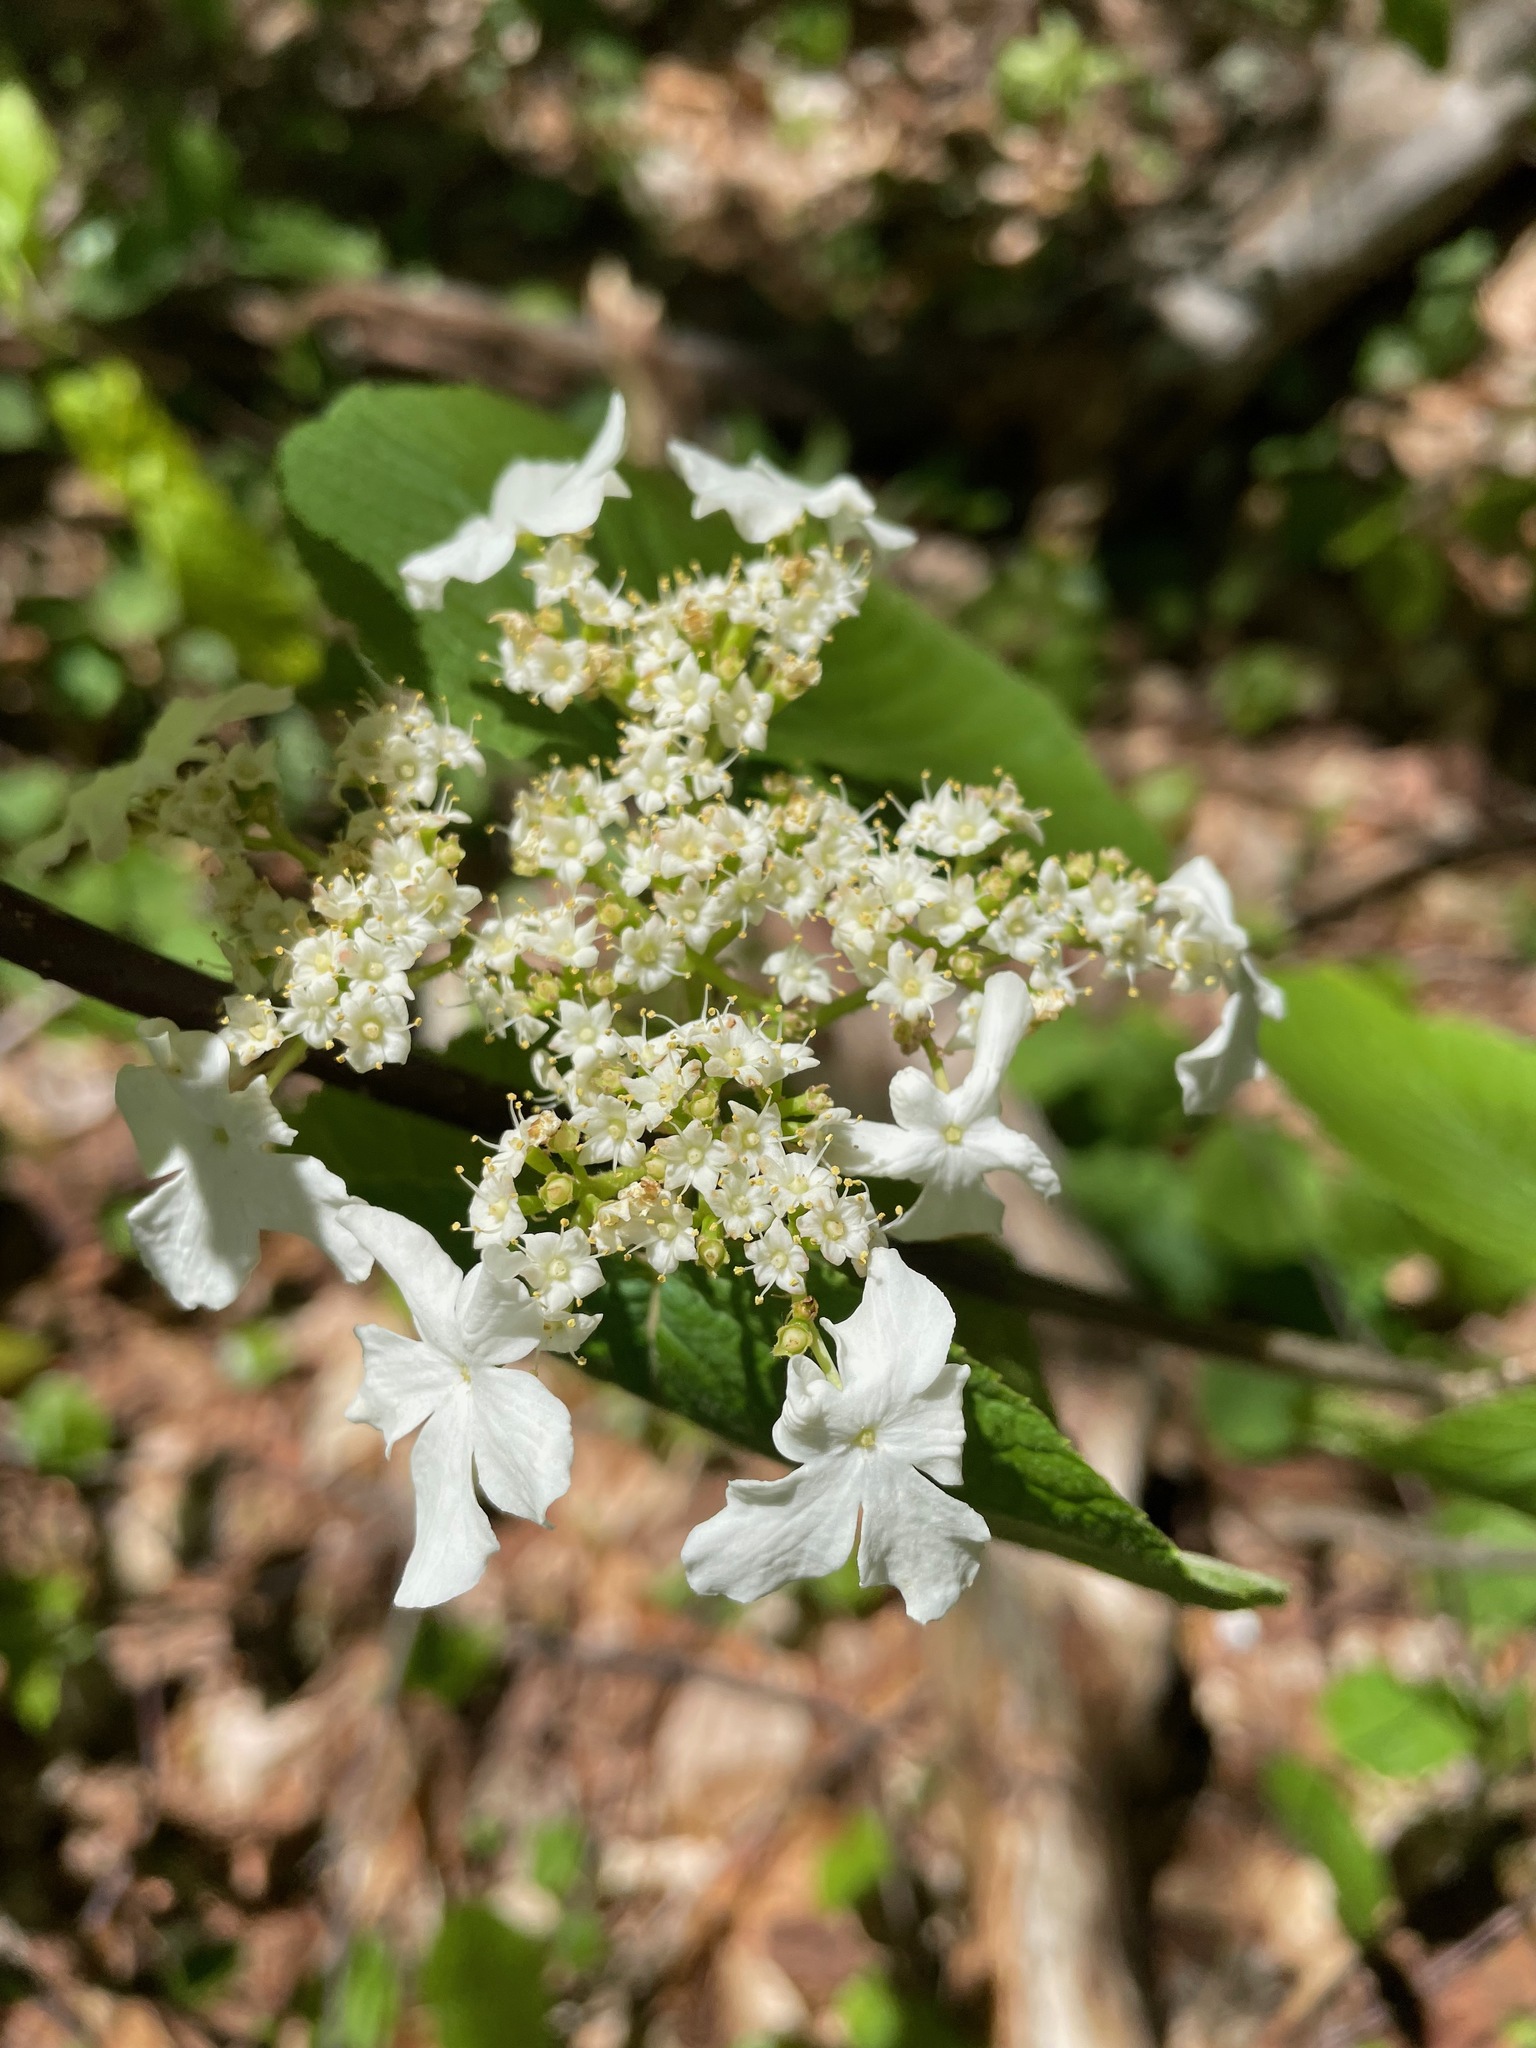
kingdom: Plantae
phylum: Tracheophyta
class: Magnoliopsida
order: Dipsacales
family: Viburnaceae
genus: Viburnum
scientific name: Viburnum lantanoides
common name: Hobblebush
